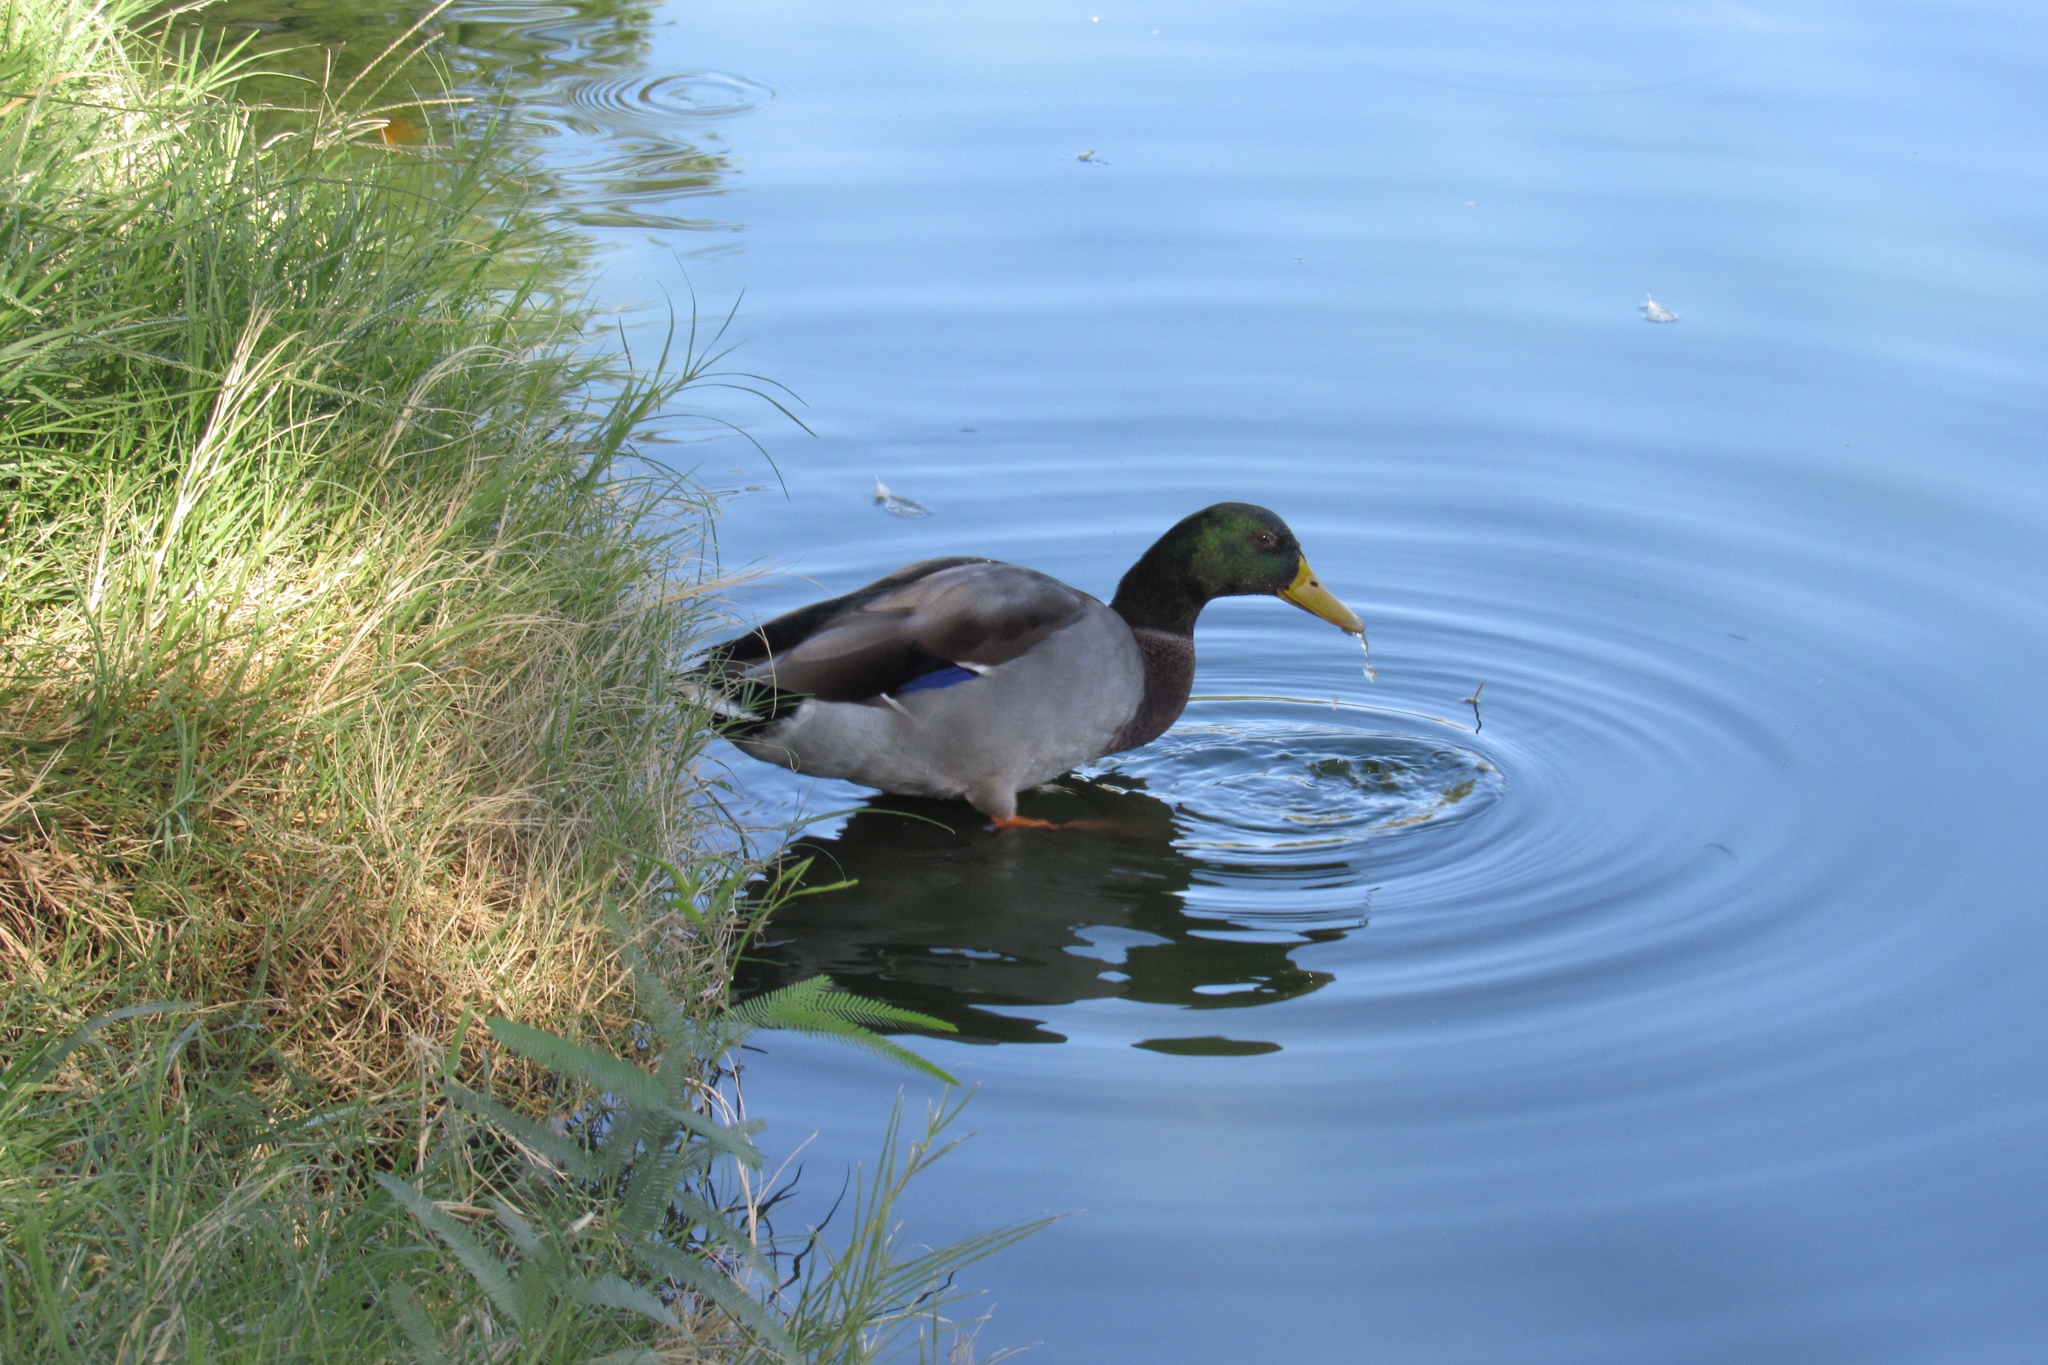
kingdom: Animalia
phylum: Chordata
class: Aves
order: Anseriformes
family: Anatidae
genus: Anas
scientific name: Anas platyrhynchos
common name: Mallard
